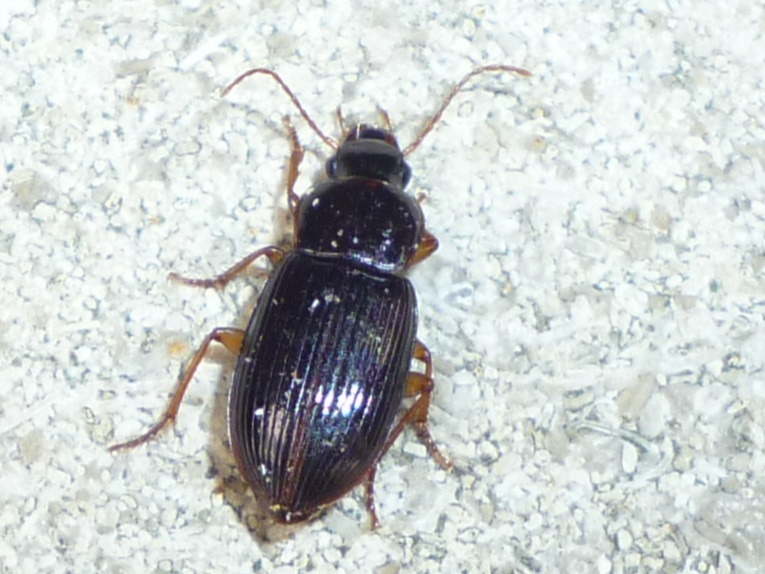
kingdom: Animalia
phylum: Arthropoda
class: Insecta
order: Coleoptera
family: Carabidae
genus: Trichotichnus
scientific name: Trichotichnus autumnalis
